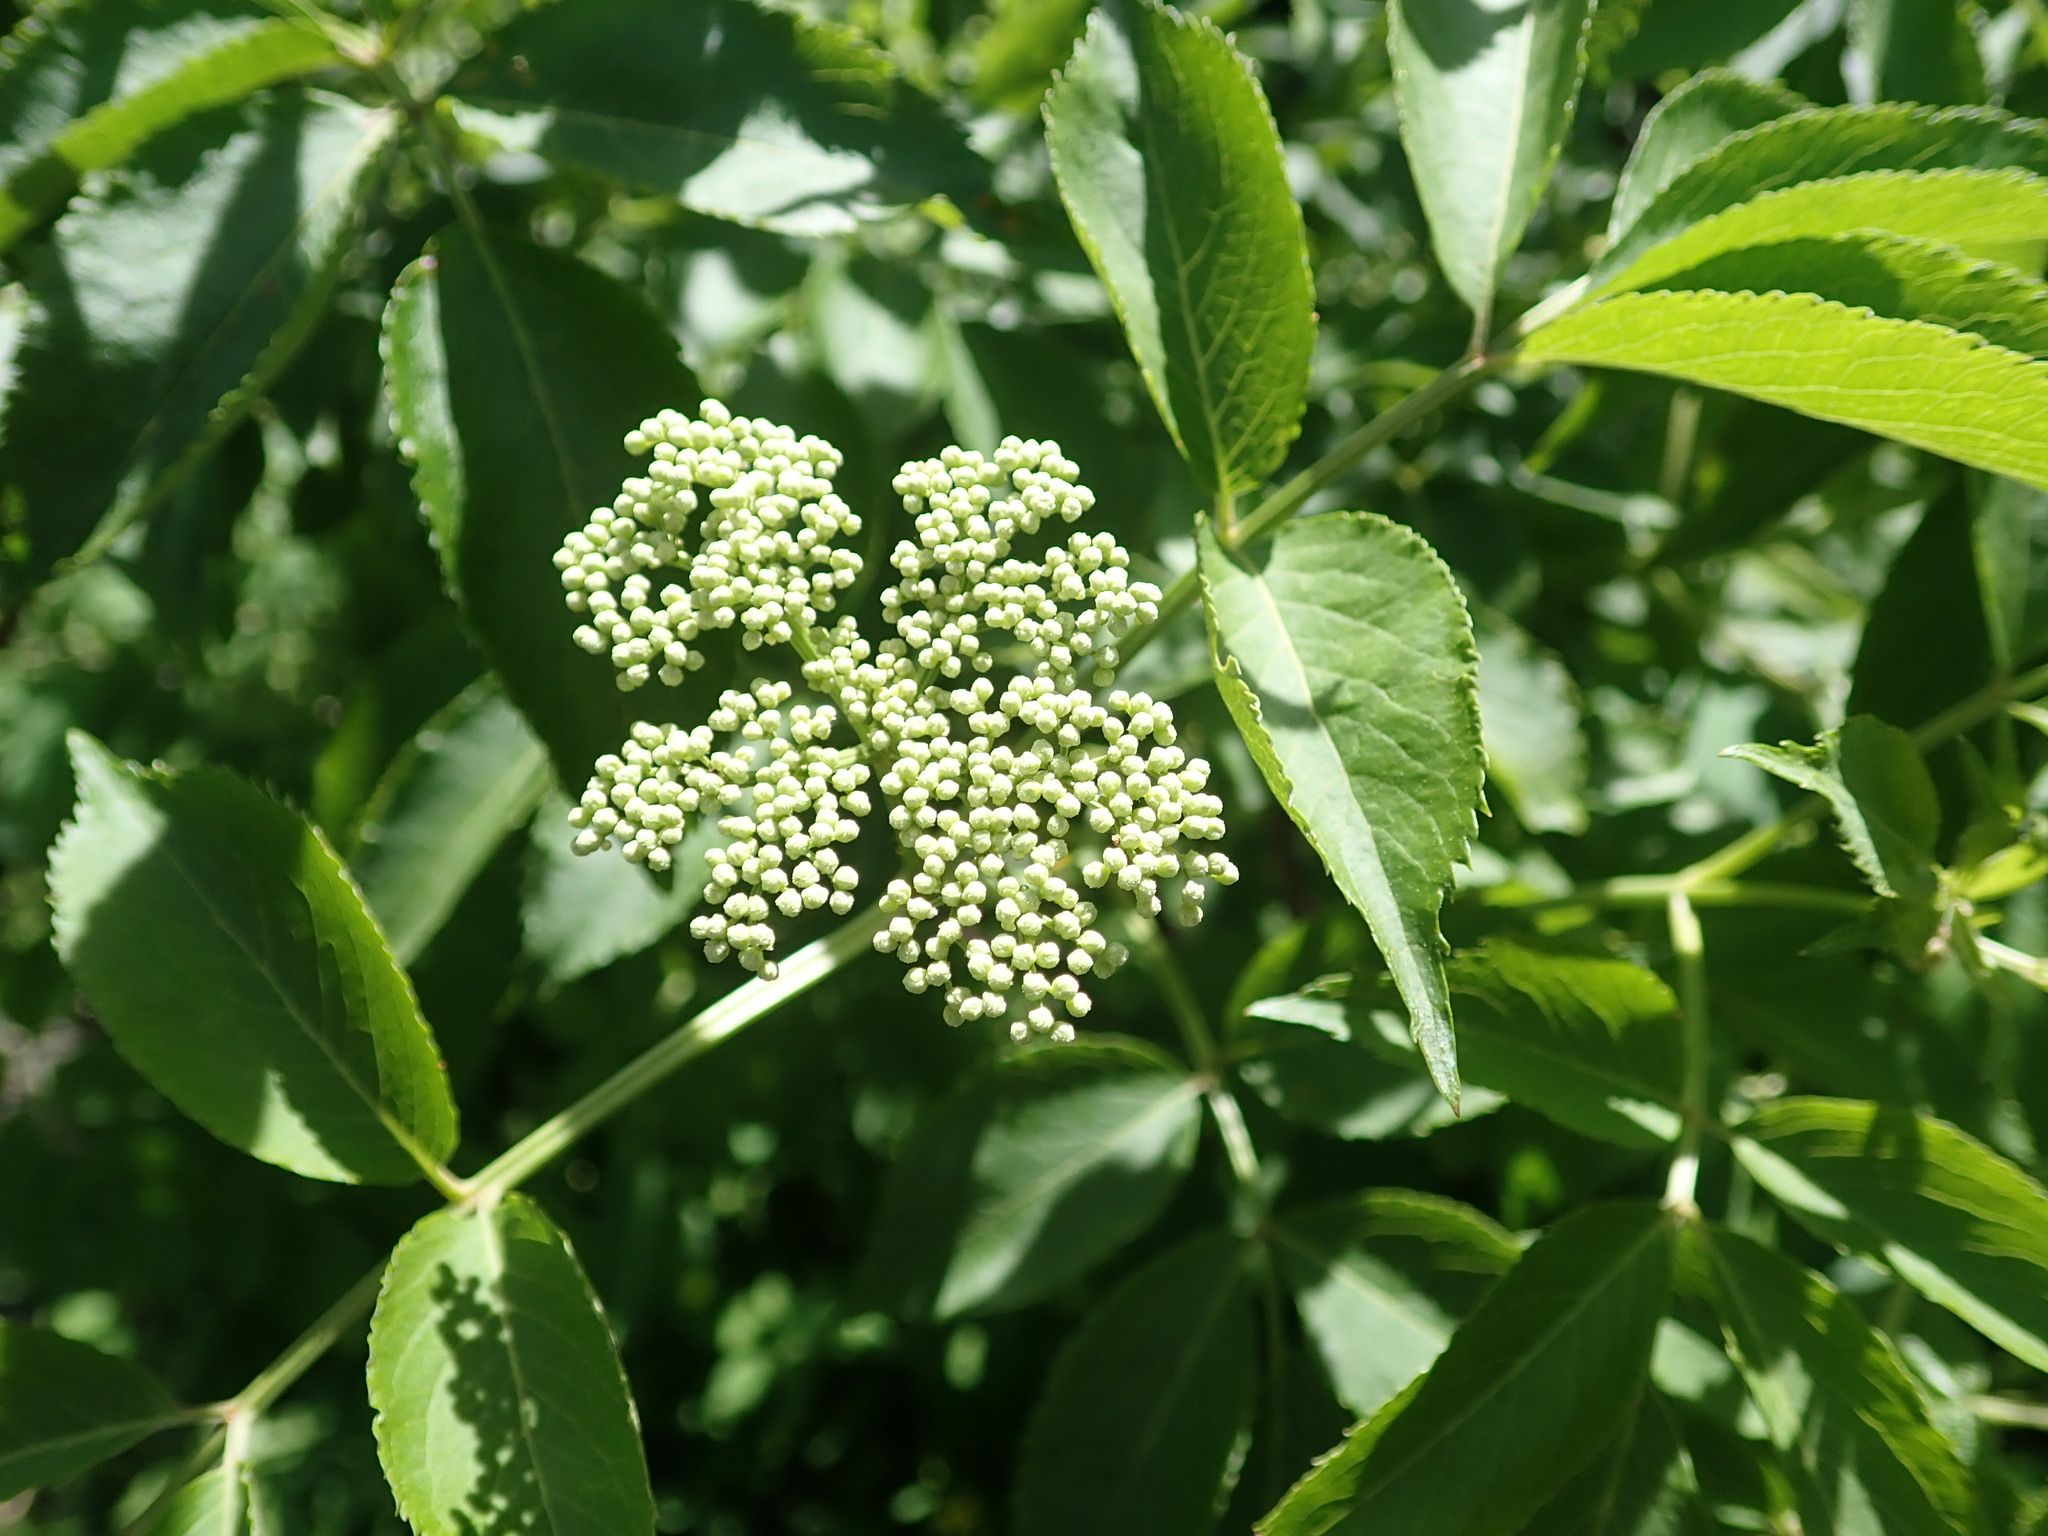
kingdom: Plantae
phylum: Tracheophyta
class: Magnoliopsida
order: Dipsacales
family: Viburnaceae
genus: Sambucus
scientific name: Sambucus canadensis
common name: American elder
